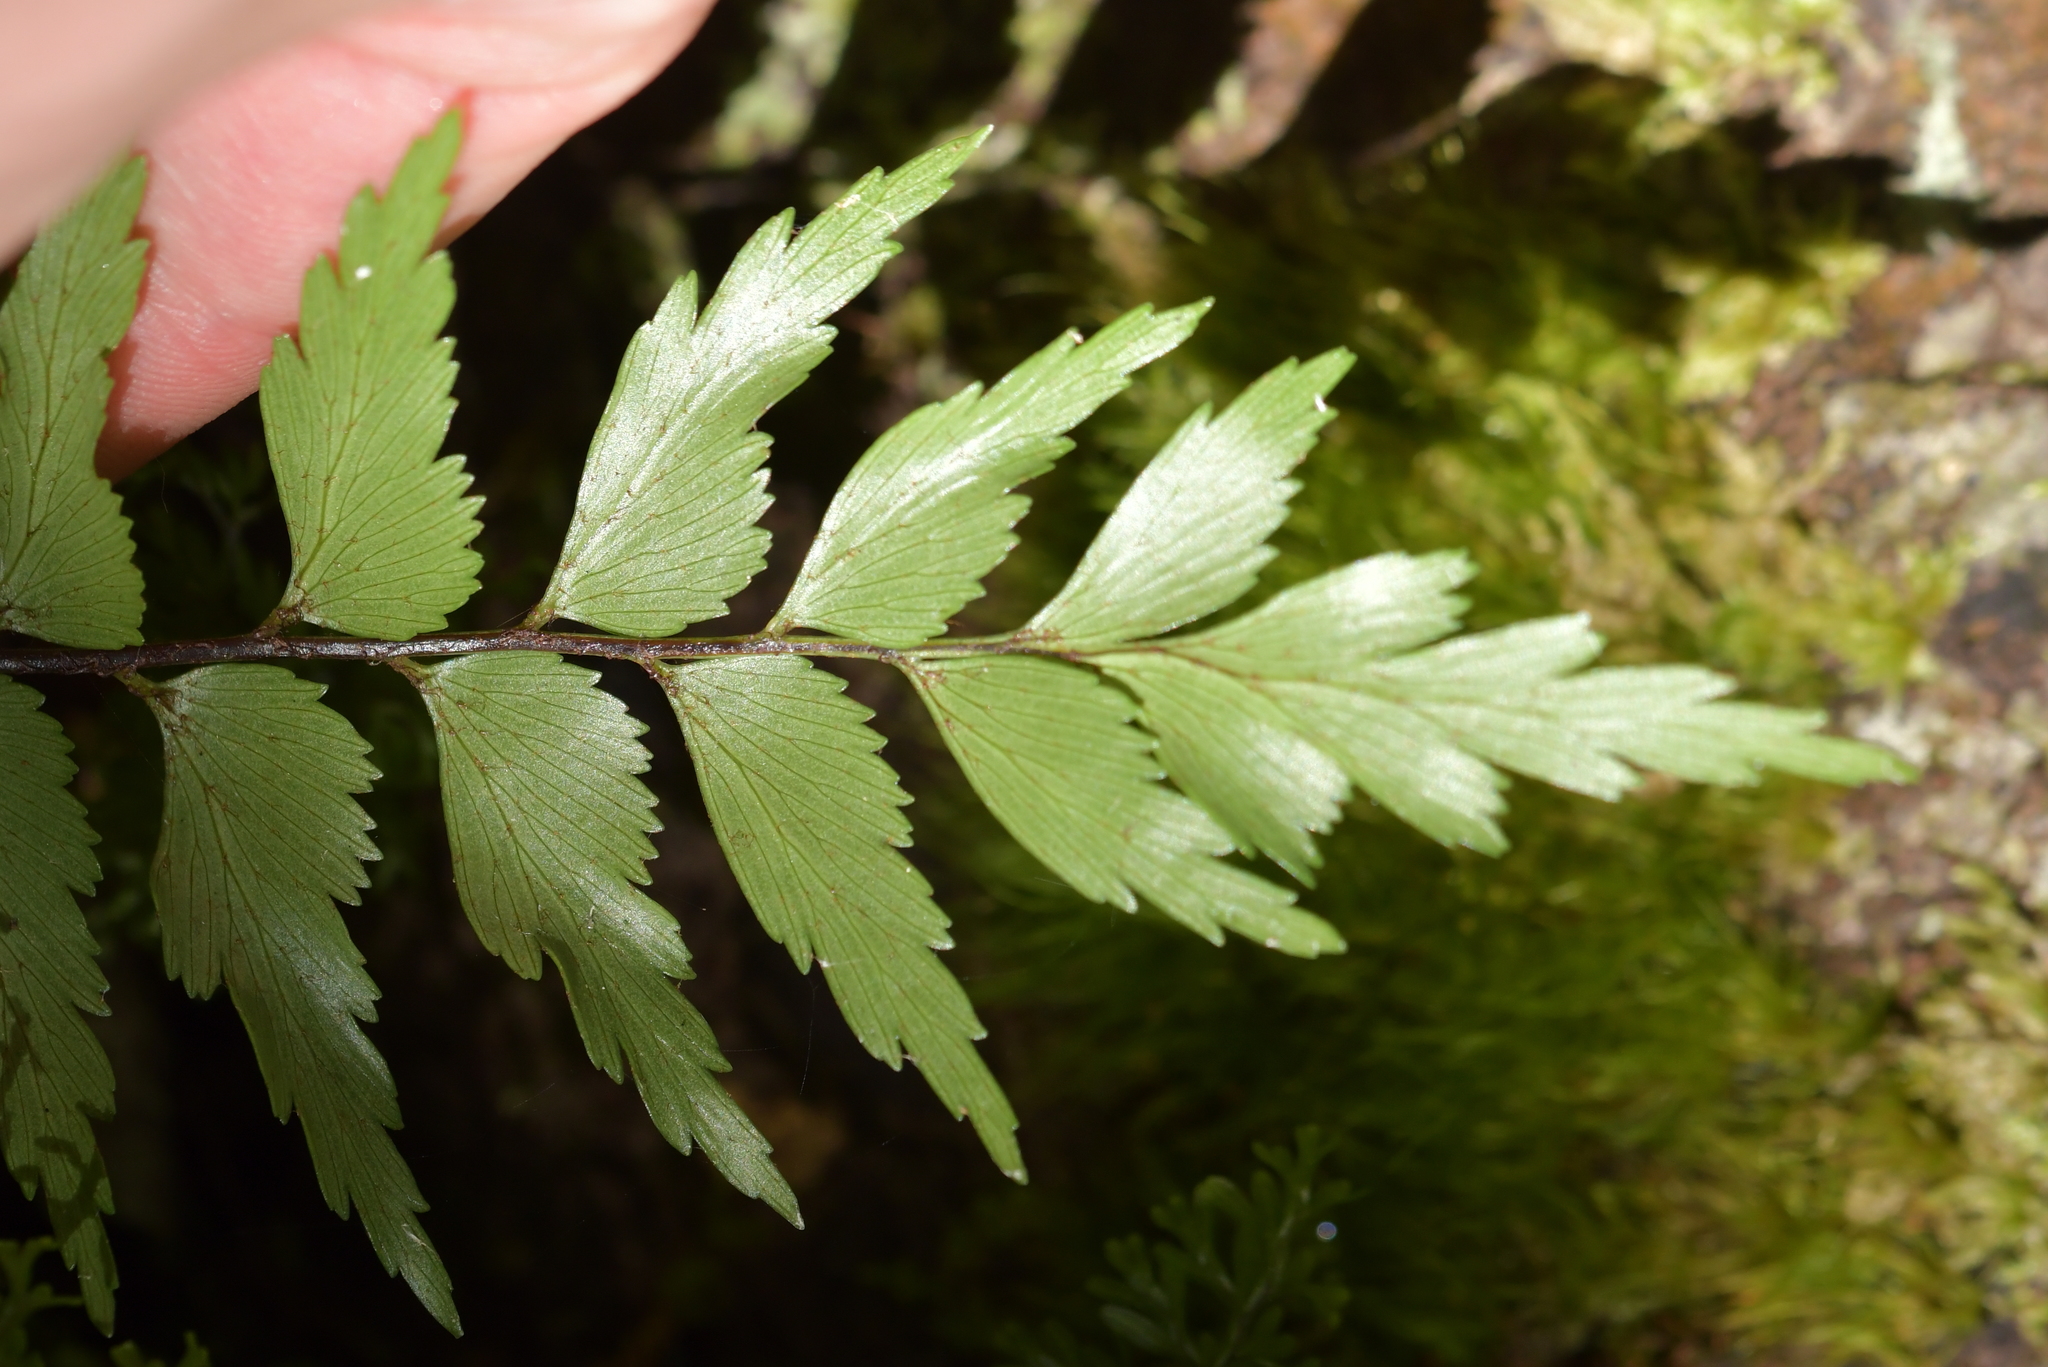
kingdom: Plantae
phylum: Tracheophyta
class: Polypodiopsida
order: Polypodiales
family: Aspleniaceae
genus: Asplenium
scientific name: Asplenium polyodon
